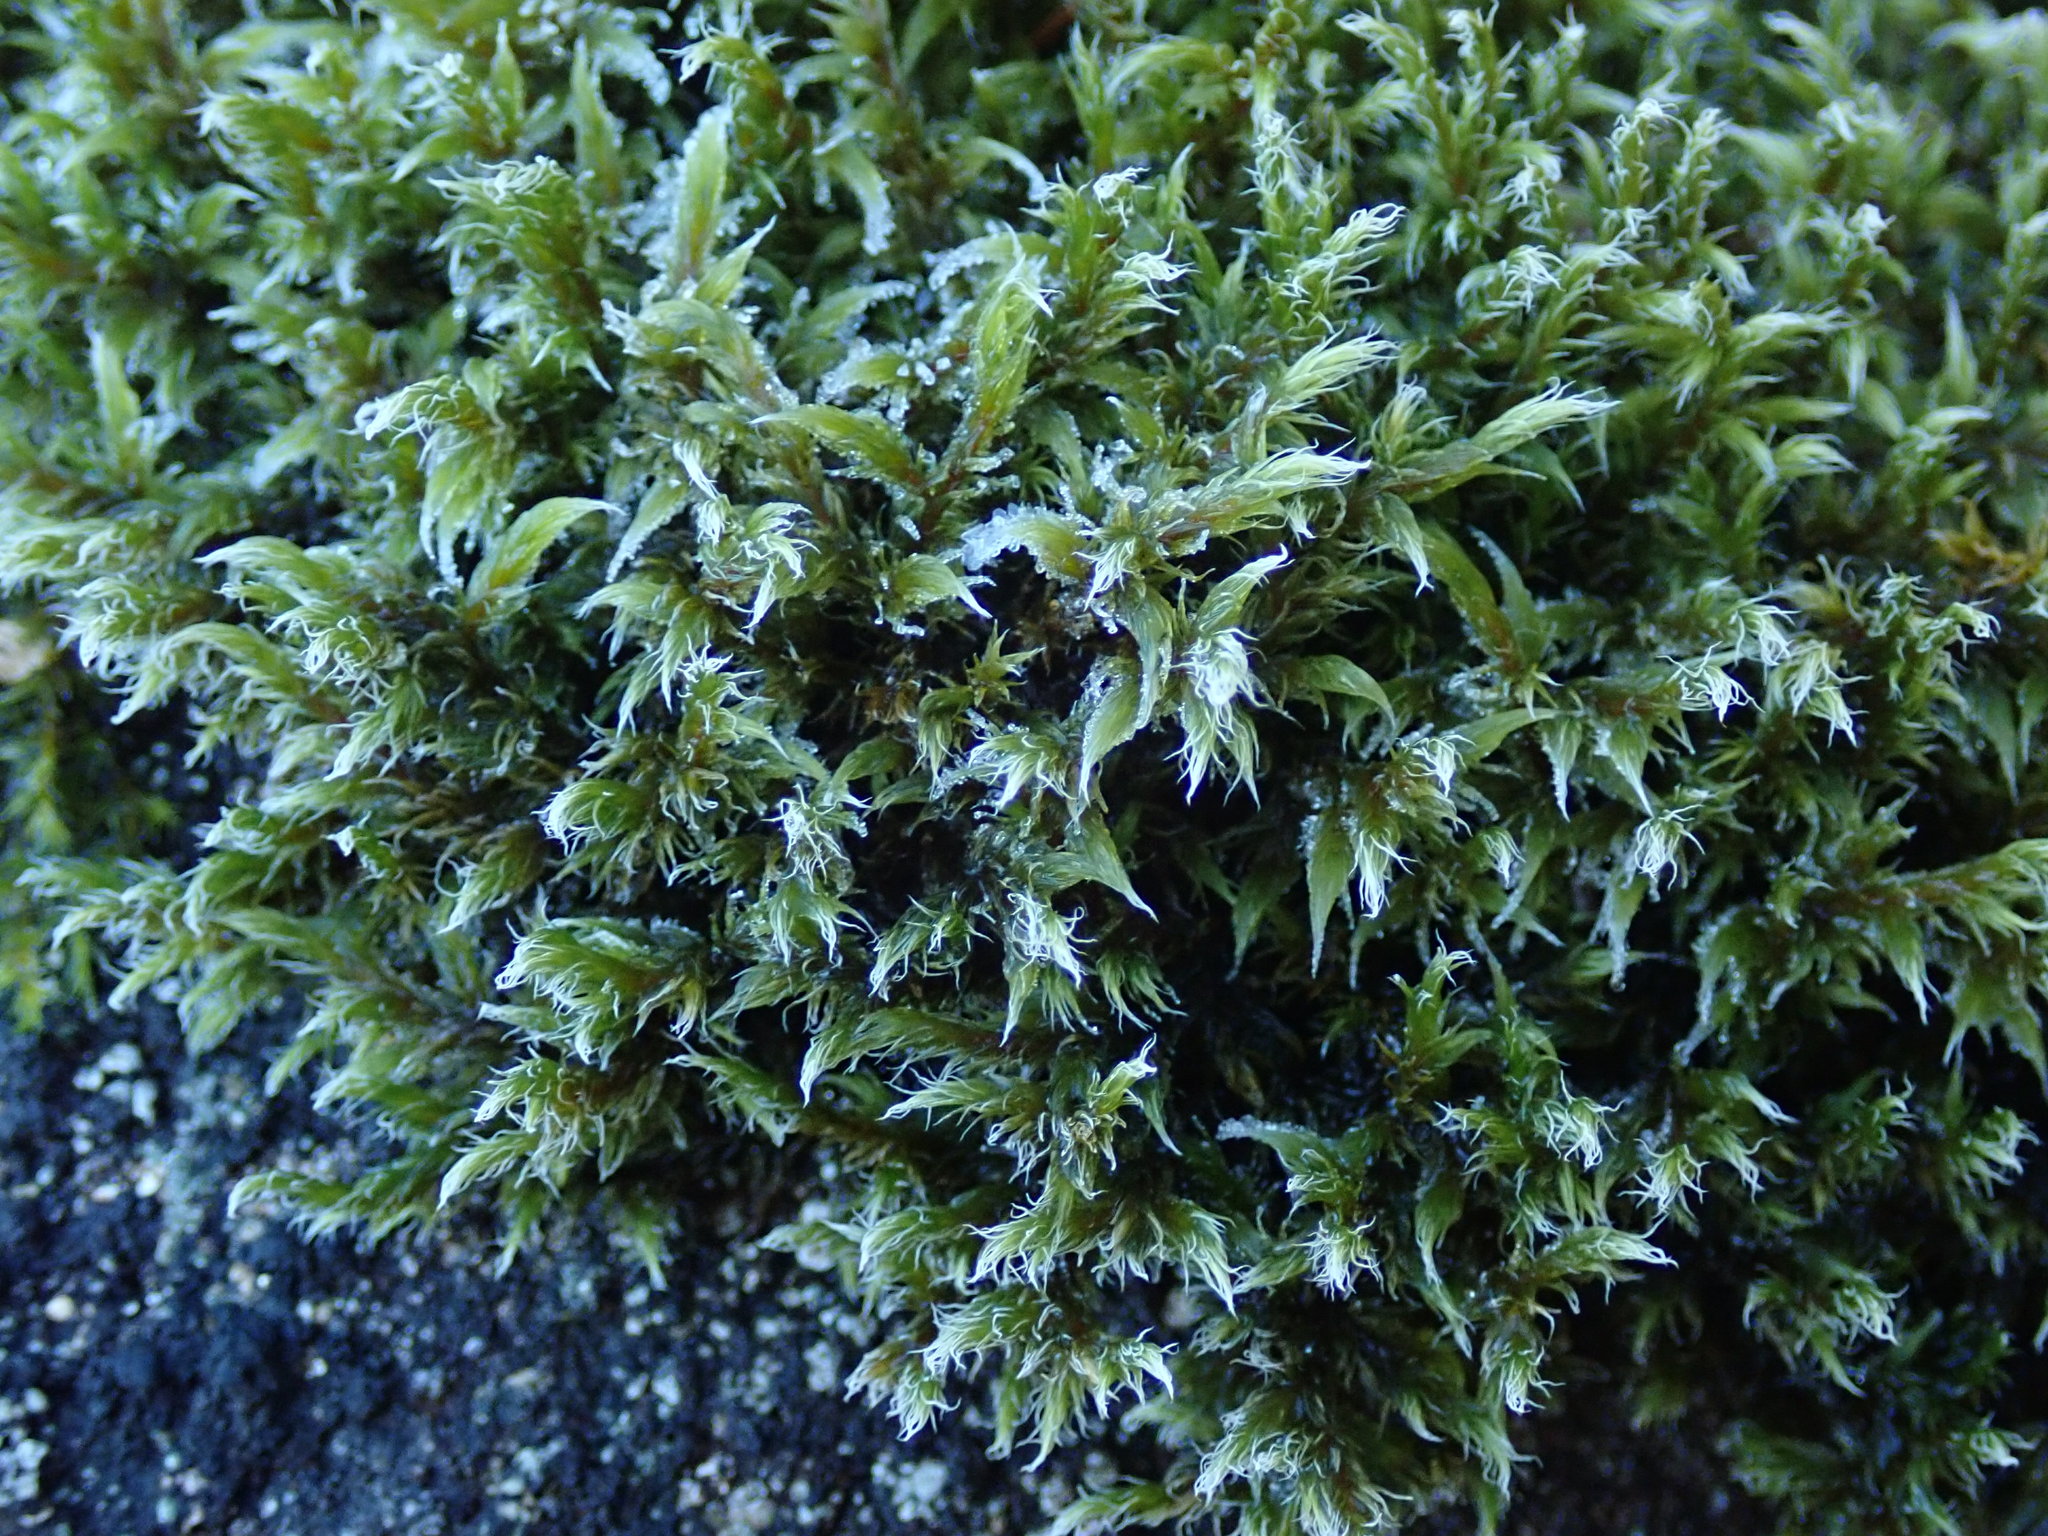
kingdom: Plantae
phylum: Bryophyta
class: Bryopsida
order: Grimmiales
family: Grimmiaceae
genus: Racomitrium
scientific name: Racomitrium lanuginosum
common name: Hoary rock moss
